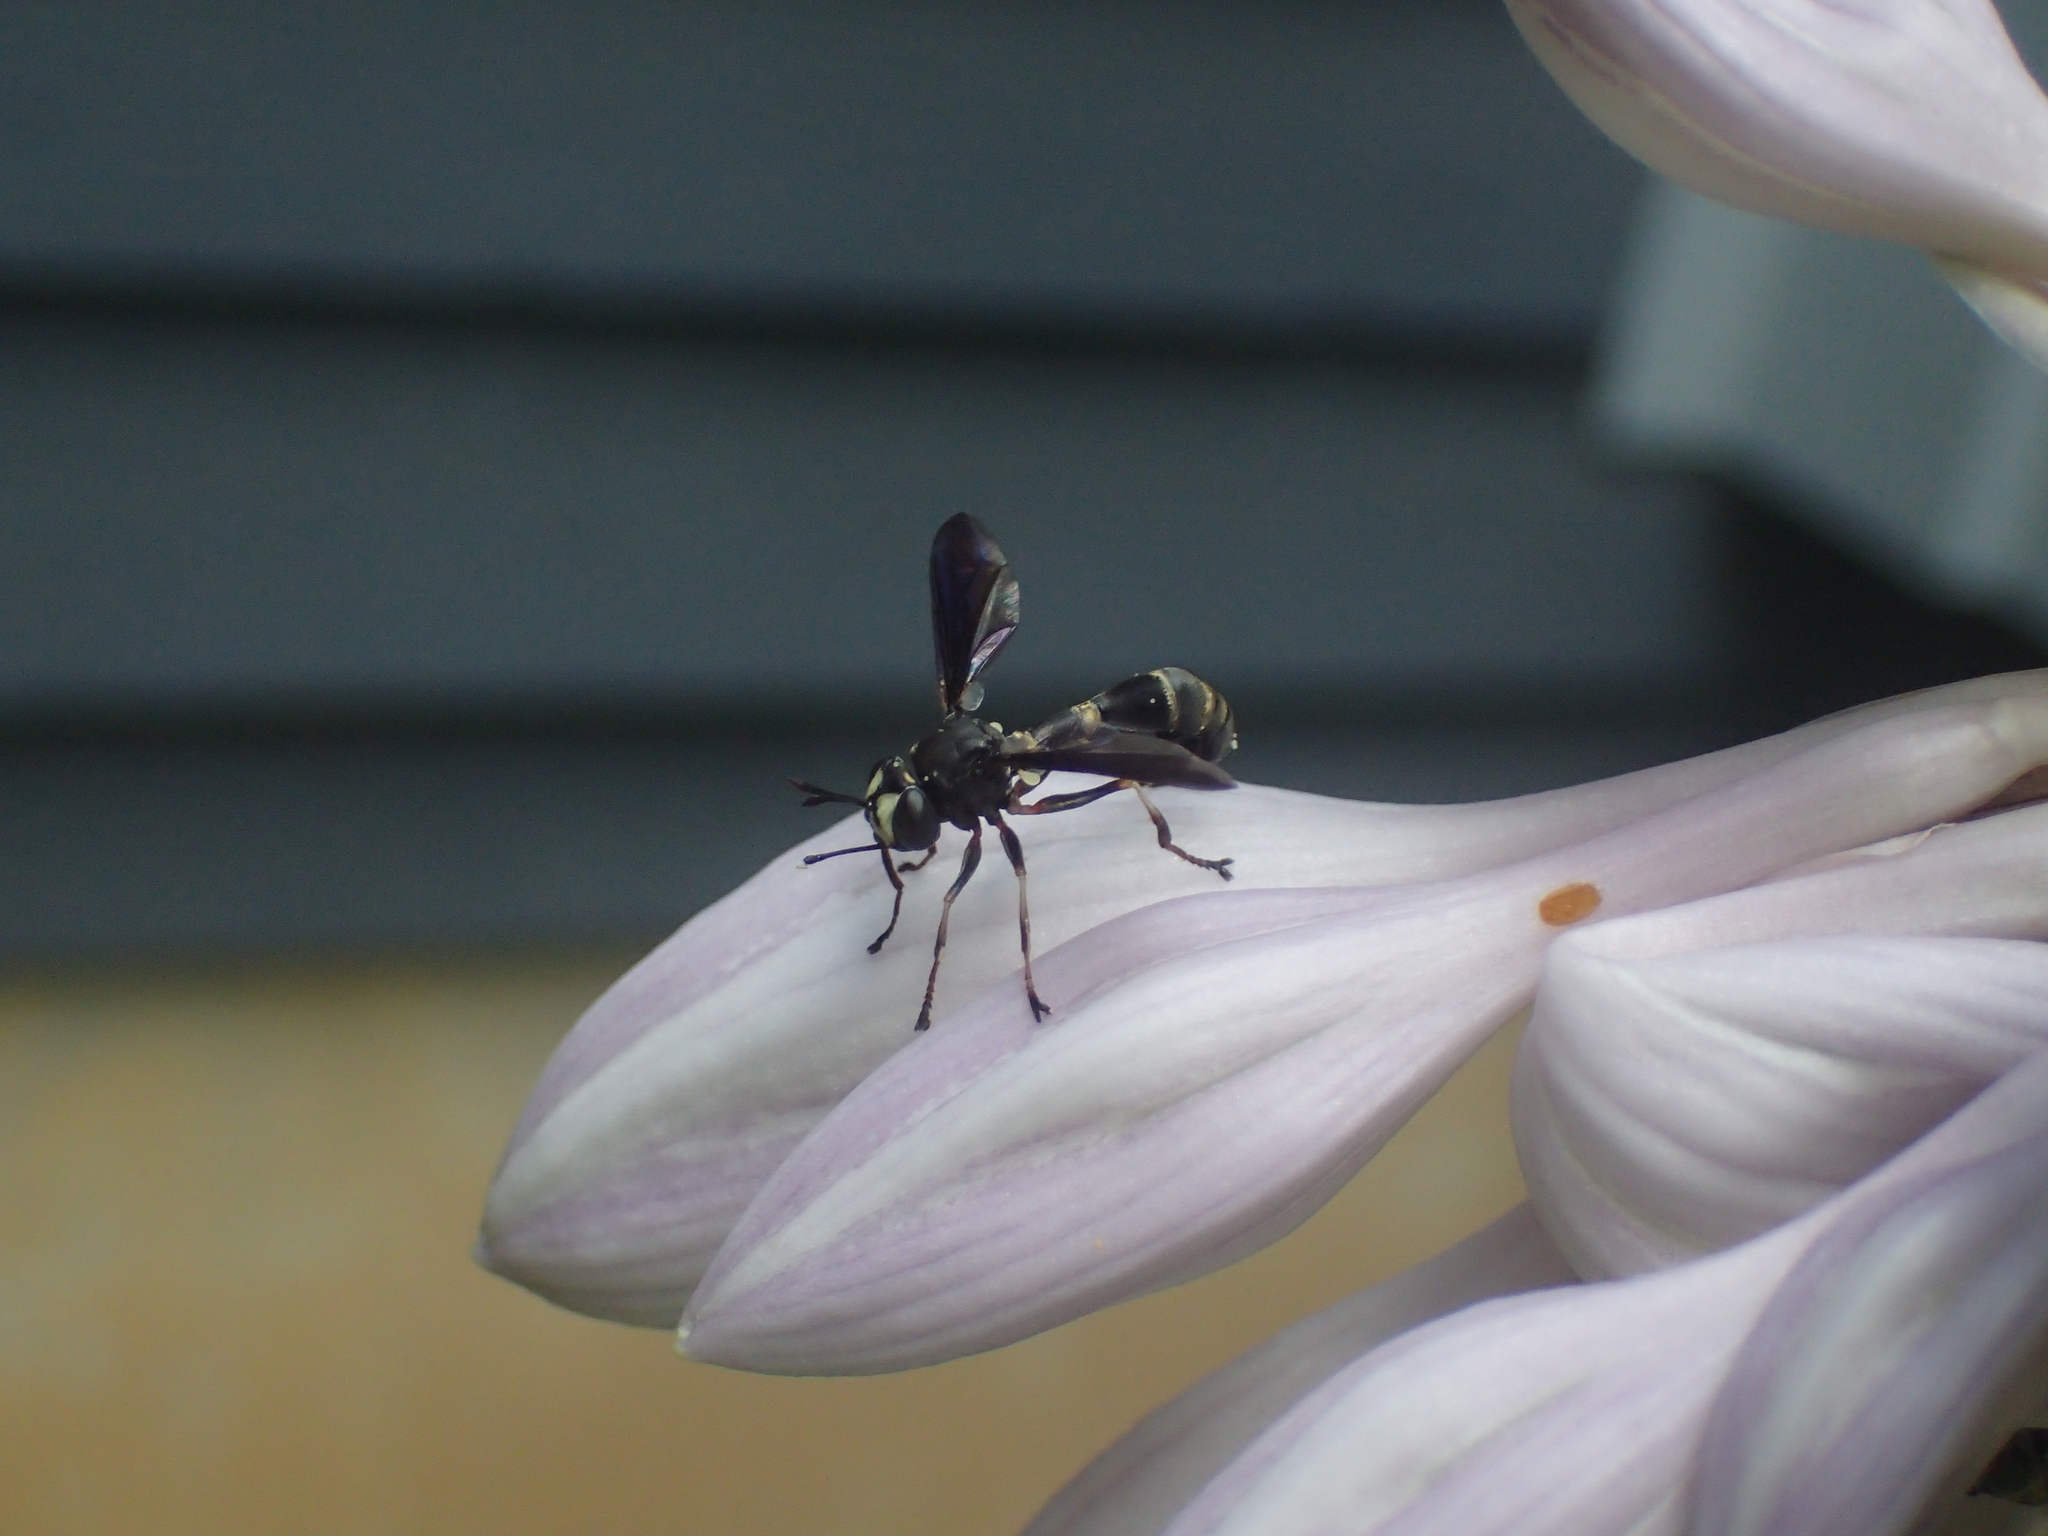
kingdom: Animalia
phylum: Arthropoda
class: Insecta
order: Diptera
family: Conopidae
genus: Physocephala
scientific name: Physocephala tibialis
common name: Common eastern physocephala
